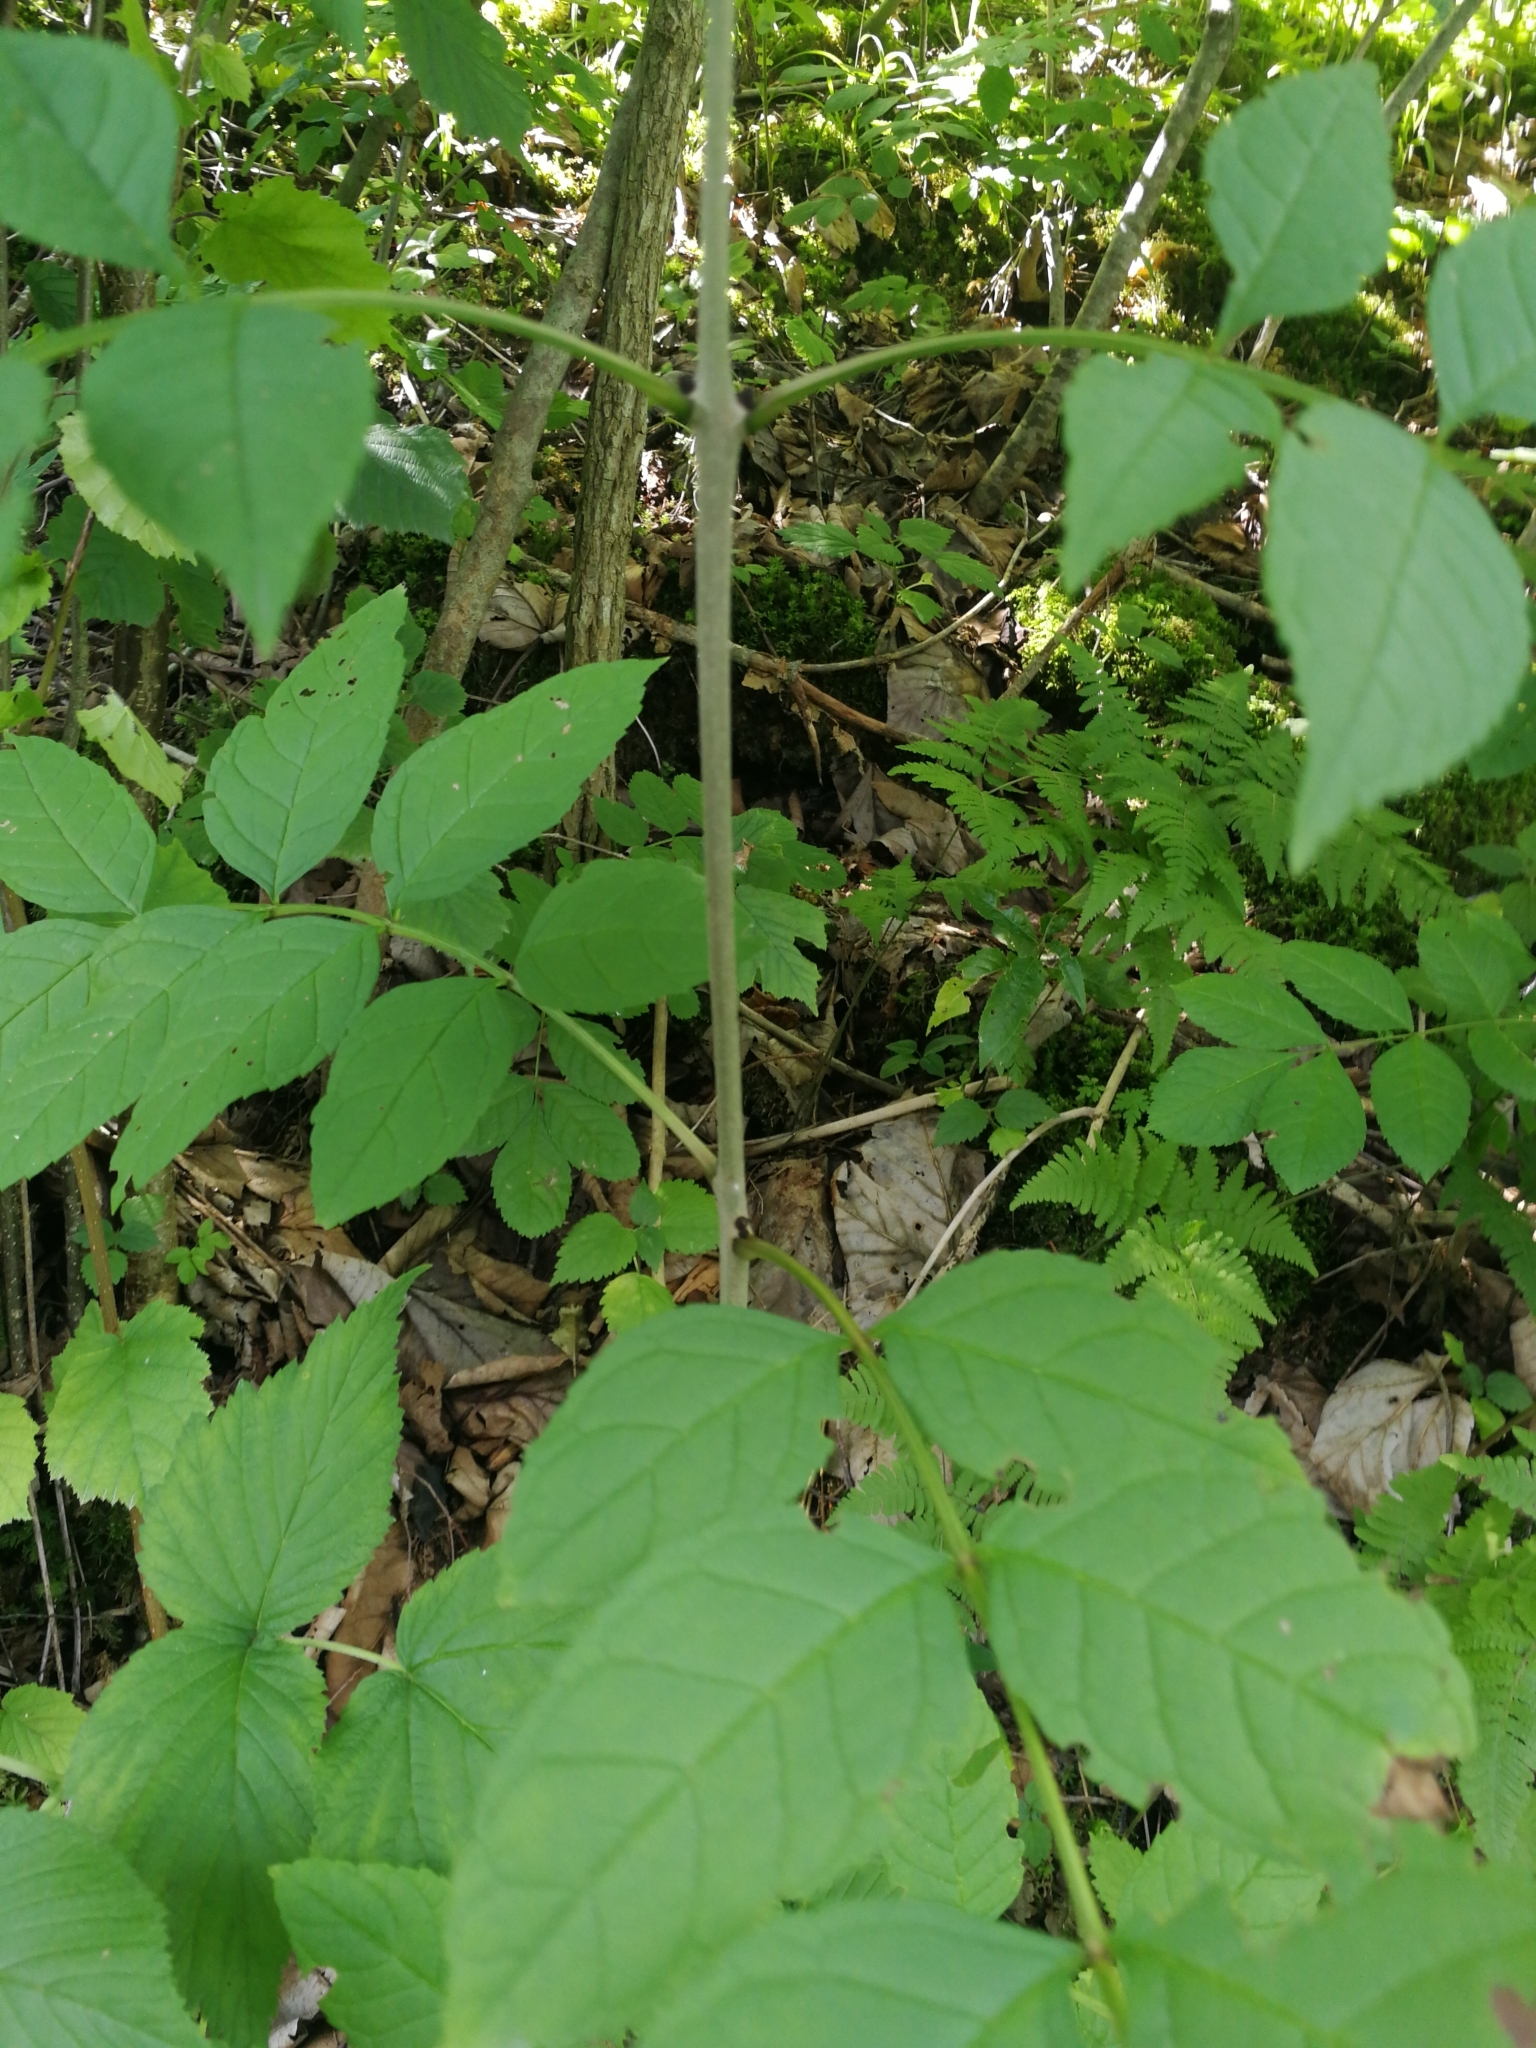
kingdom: Plantae
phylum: Tracheophyta
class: Magnoliopsida
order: Lamiales
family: Oleaceae
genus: Fraxinus
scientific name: Fraxinus excelsior
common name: European ash
